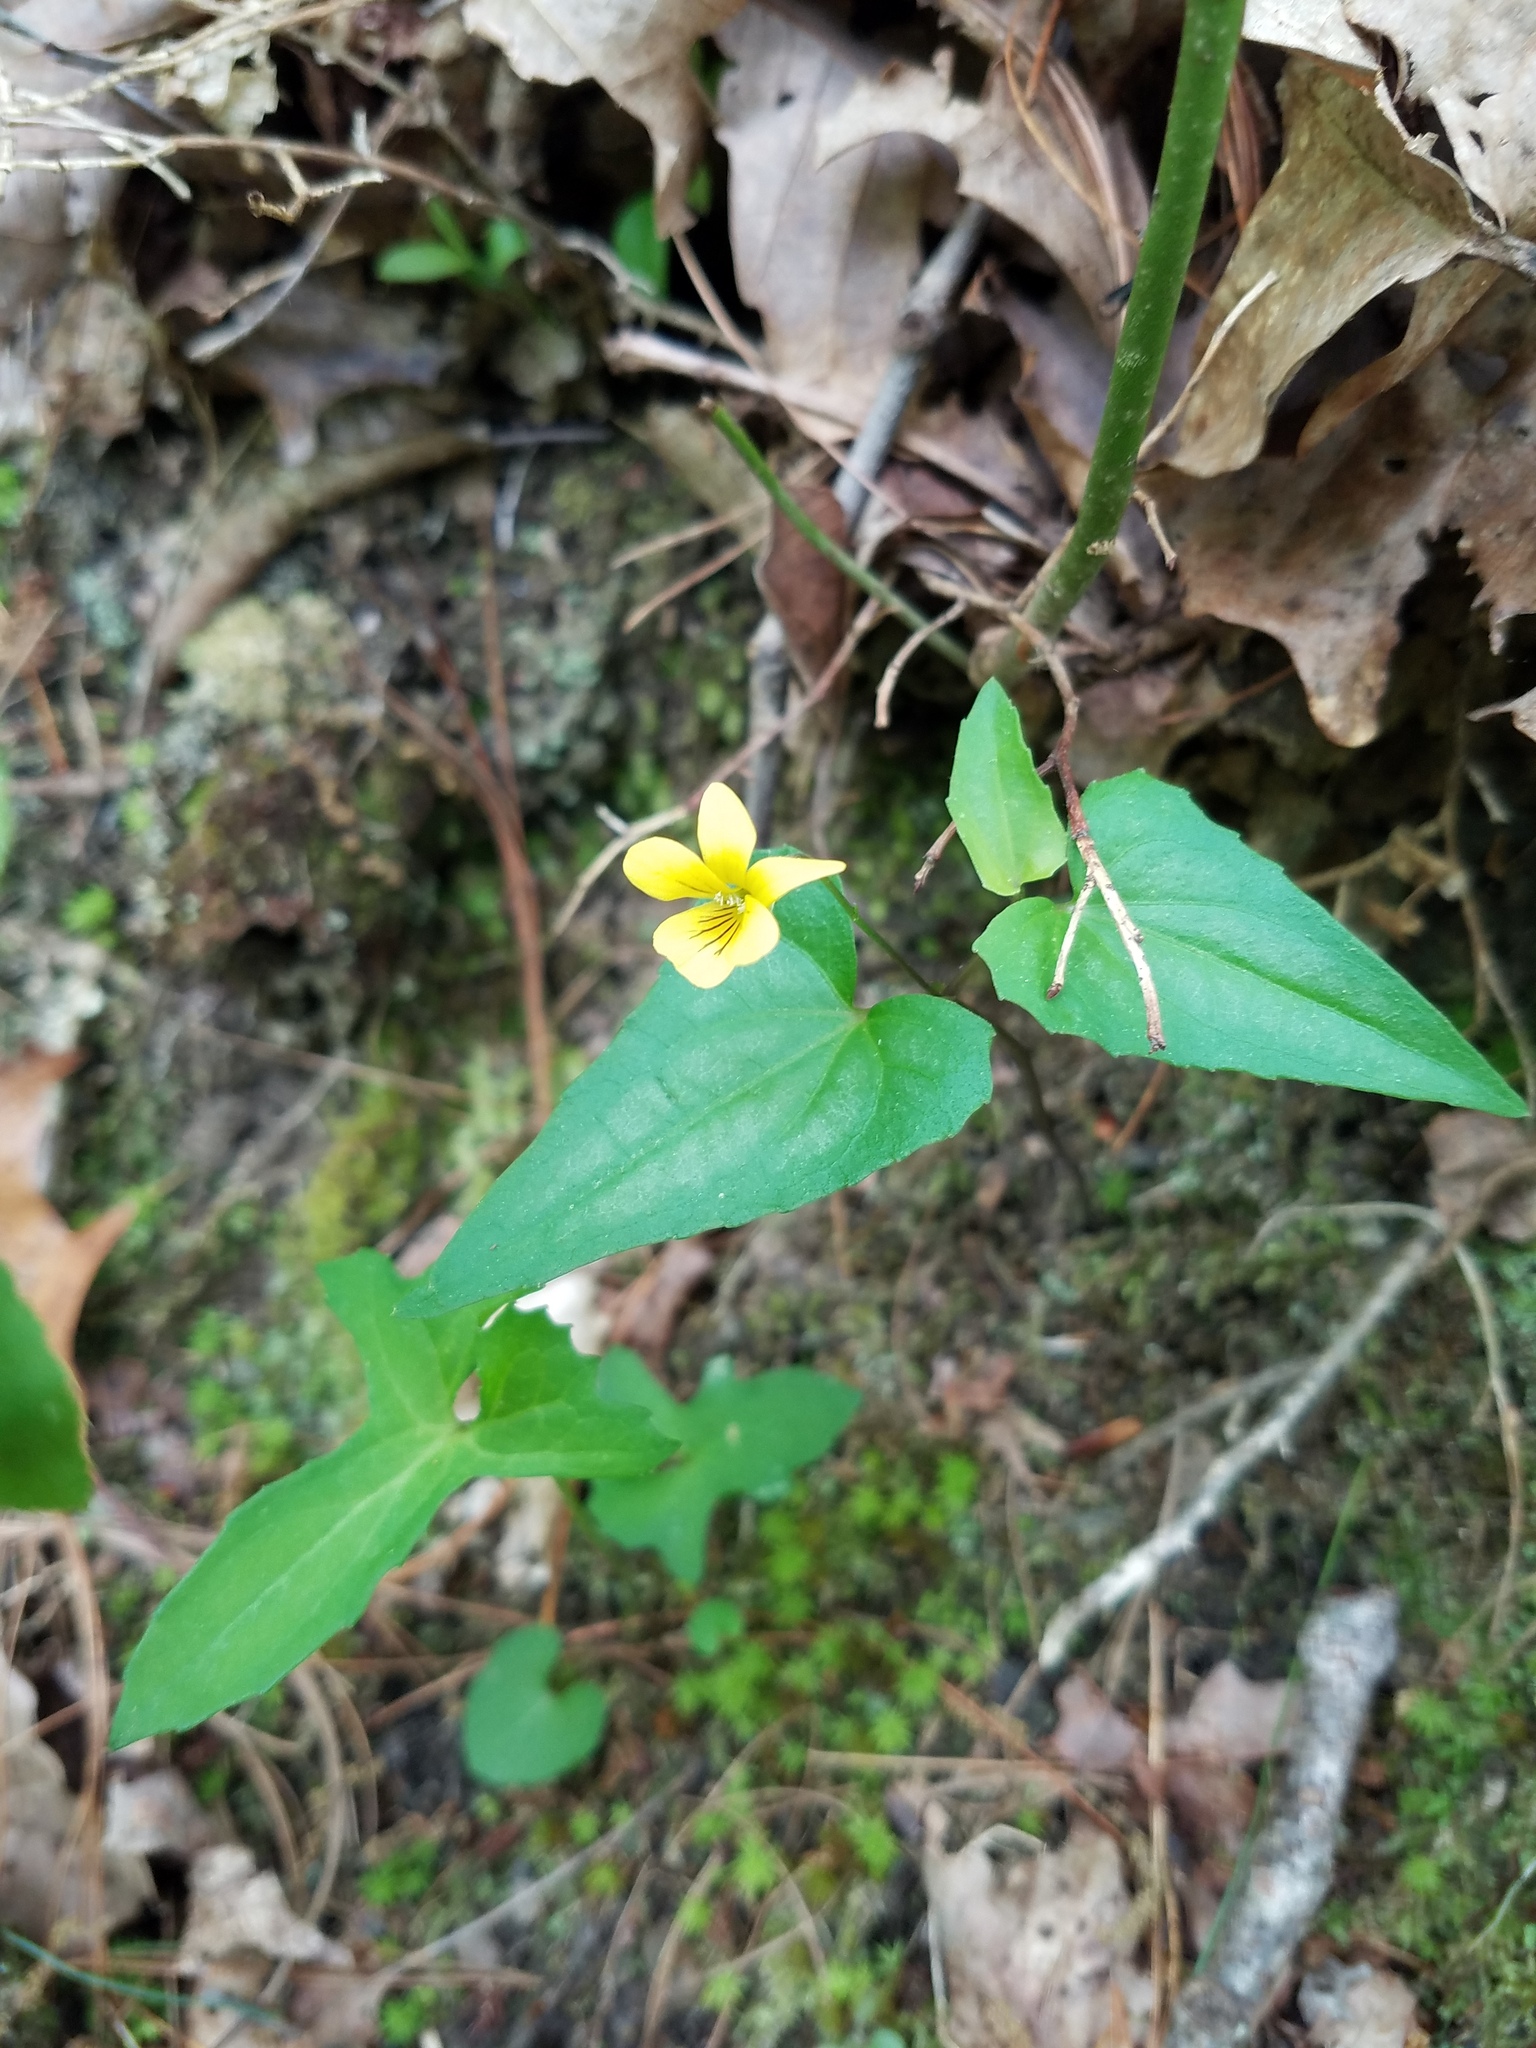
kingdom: Plantae
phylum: Tracheophyta
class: Magnoliopsida
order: Malpighiales
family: Violaceae
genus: Viola
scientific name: Viola hastata
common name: Spear-leaf violet
